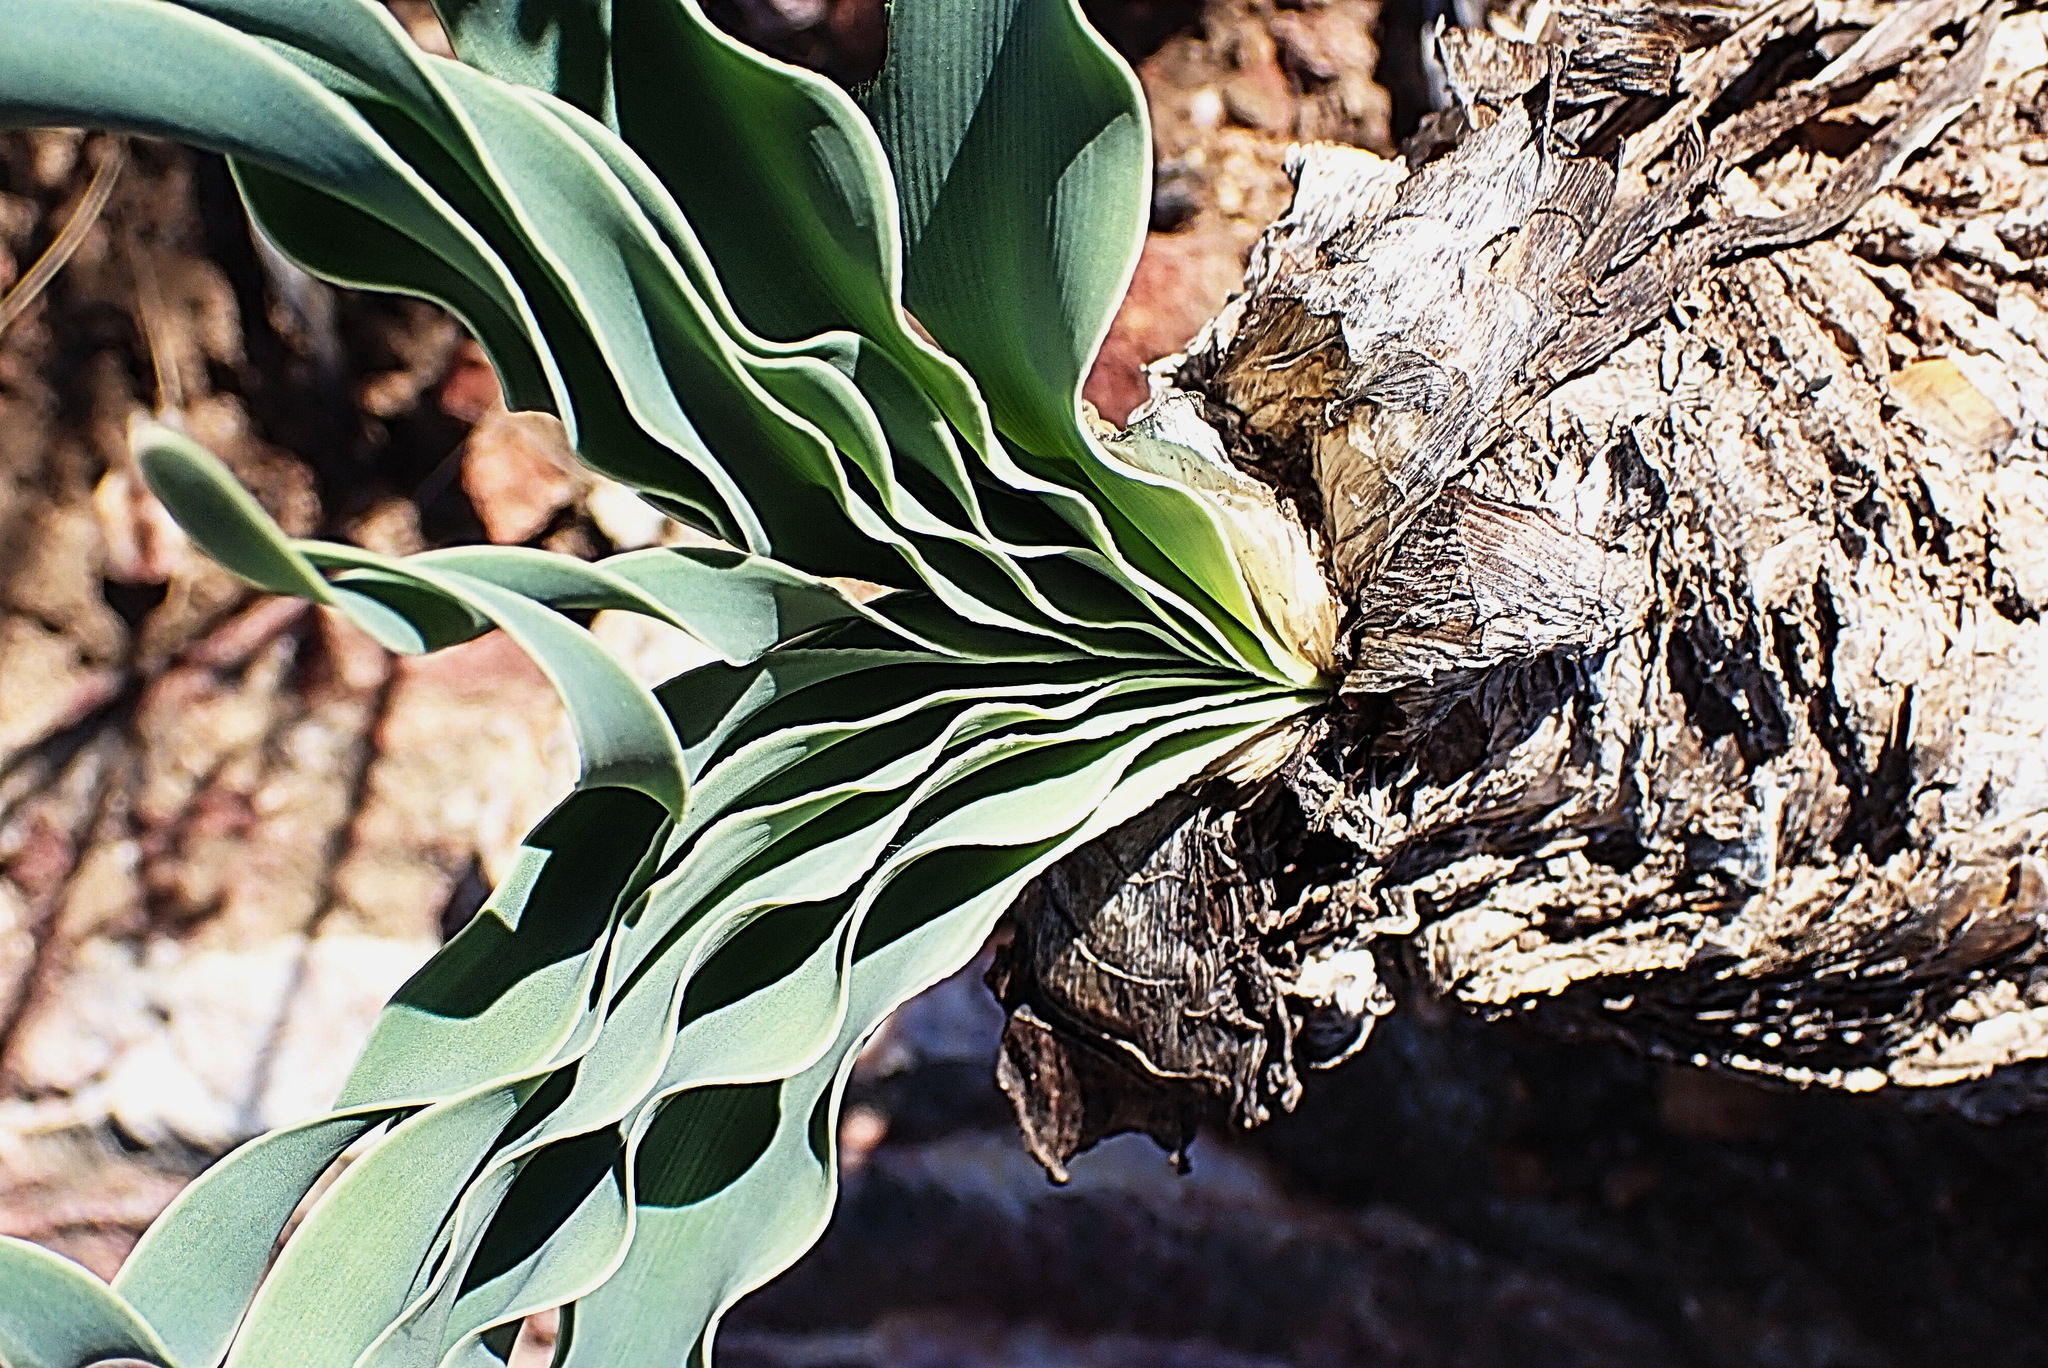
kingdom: Plantae
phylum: Tracheophyta
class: Liliopsida
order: Asparagales
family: Amaryllidaceae
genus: Boophone
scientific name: Boophone disticha
